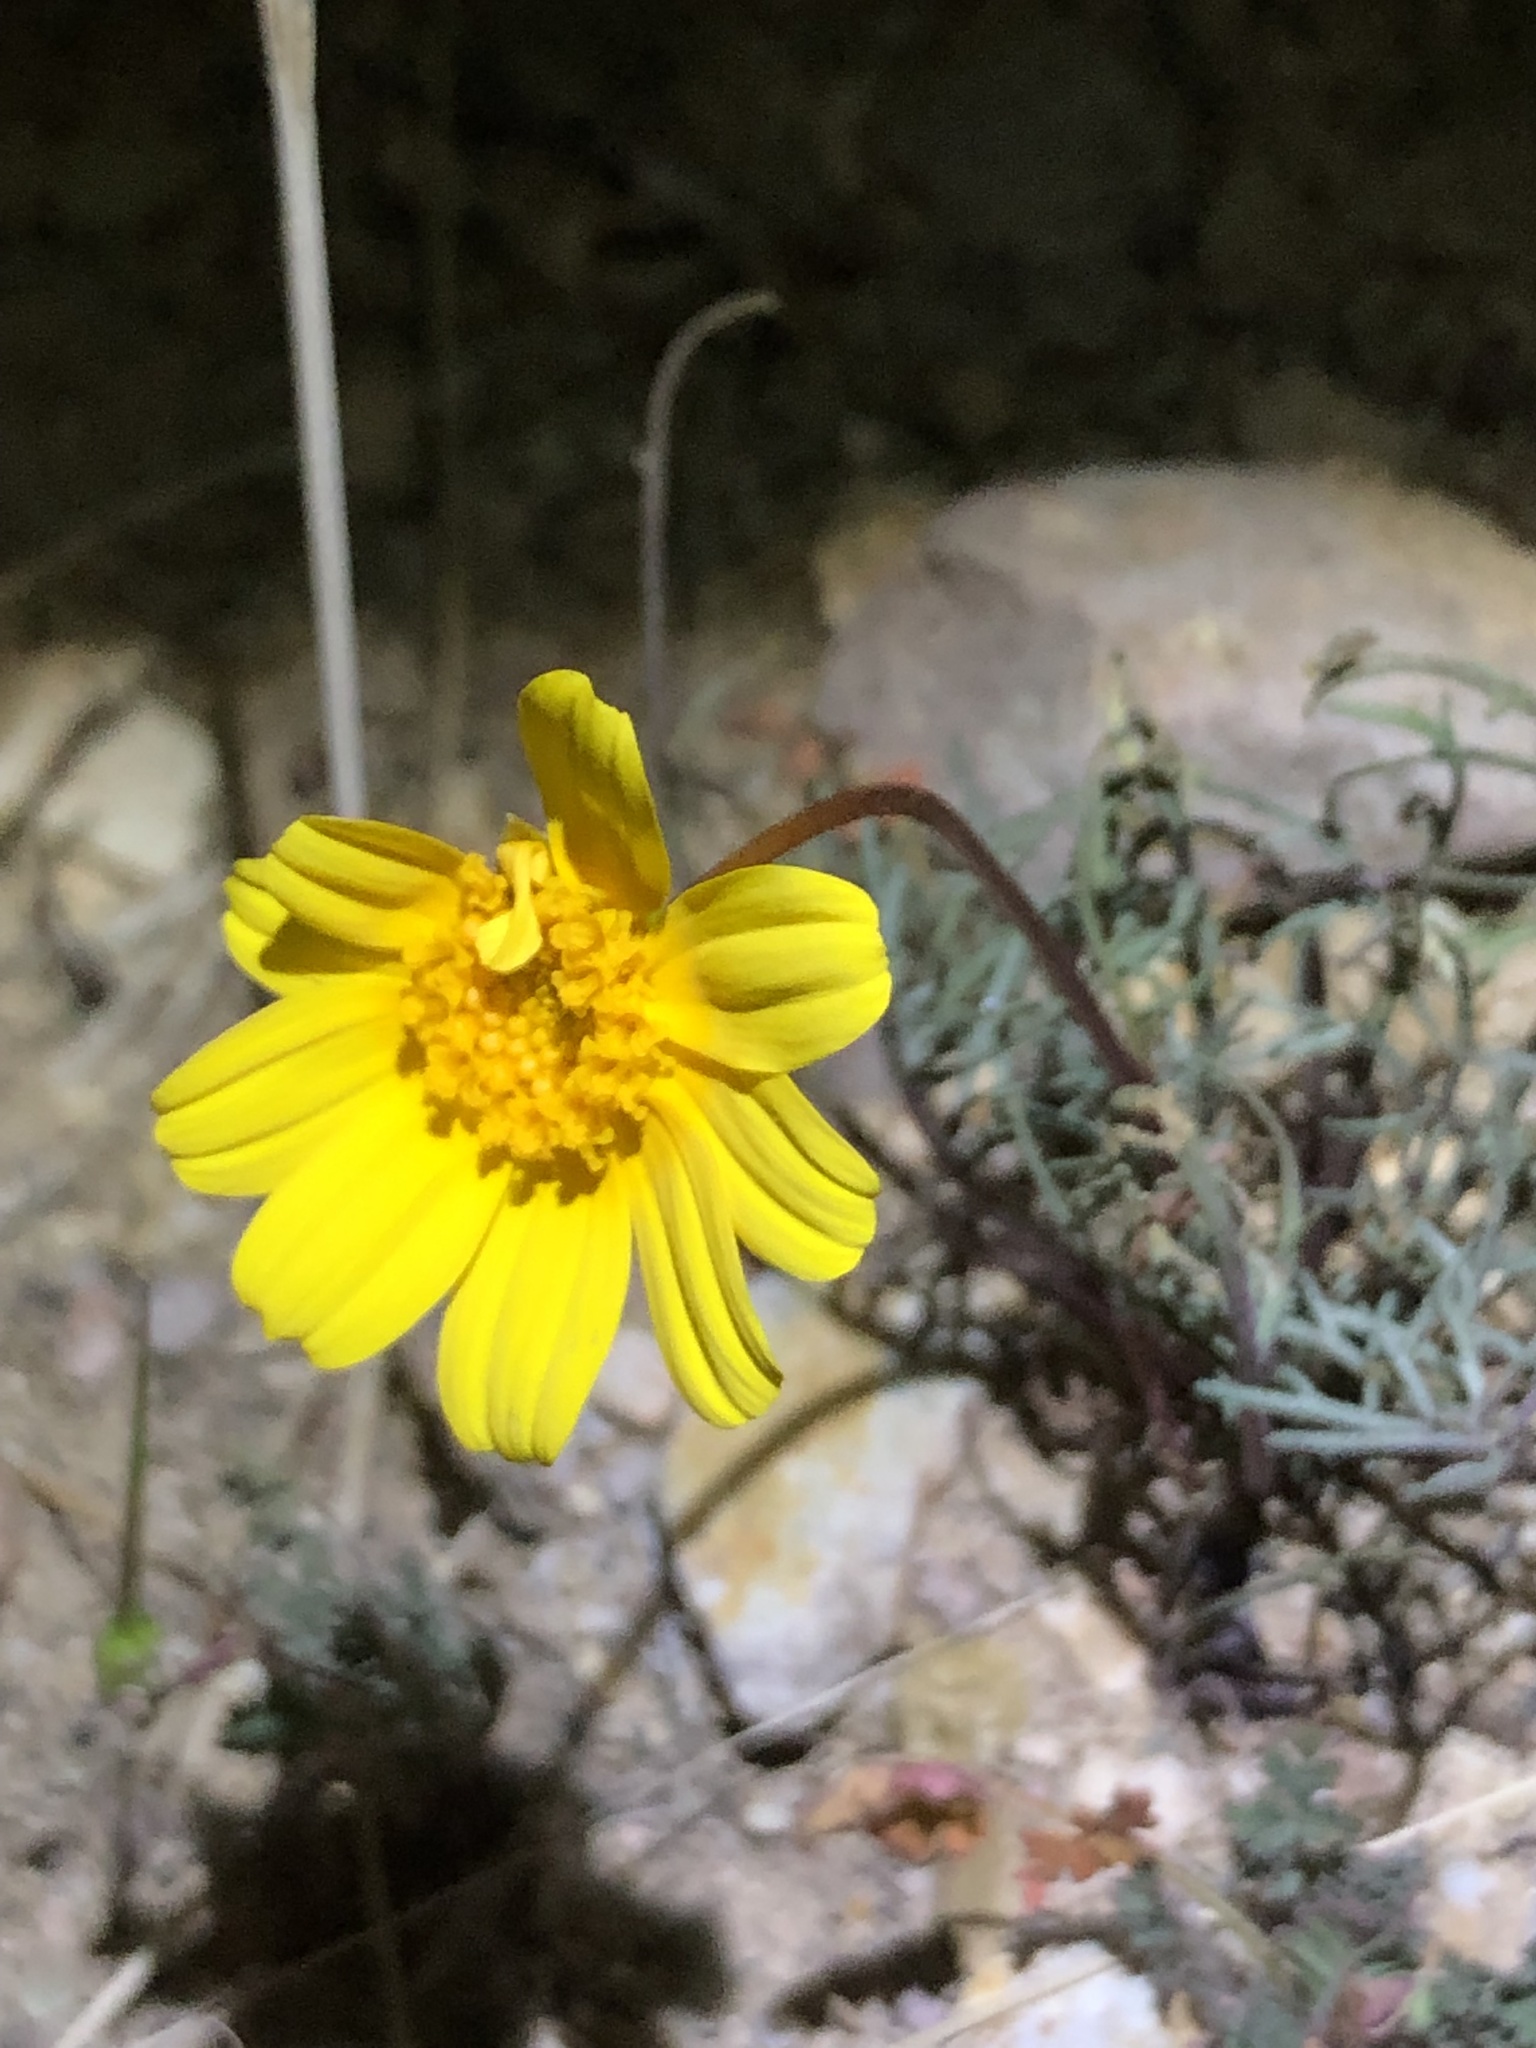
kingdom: Plantae
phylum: Tracheophyta
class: Magnoliopsida
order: Asterales
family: Asteraceae
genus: Coreopsis
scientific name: Coreopsis bigelovii
